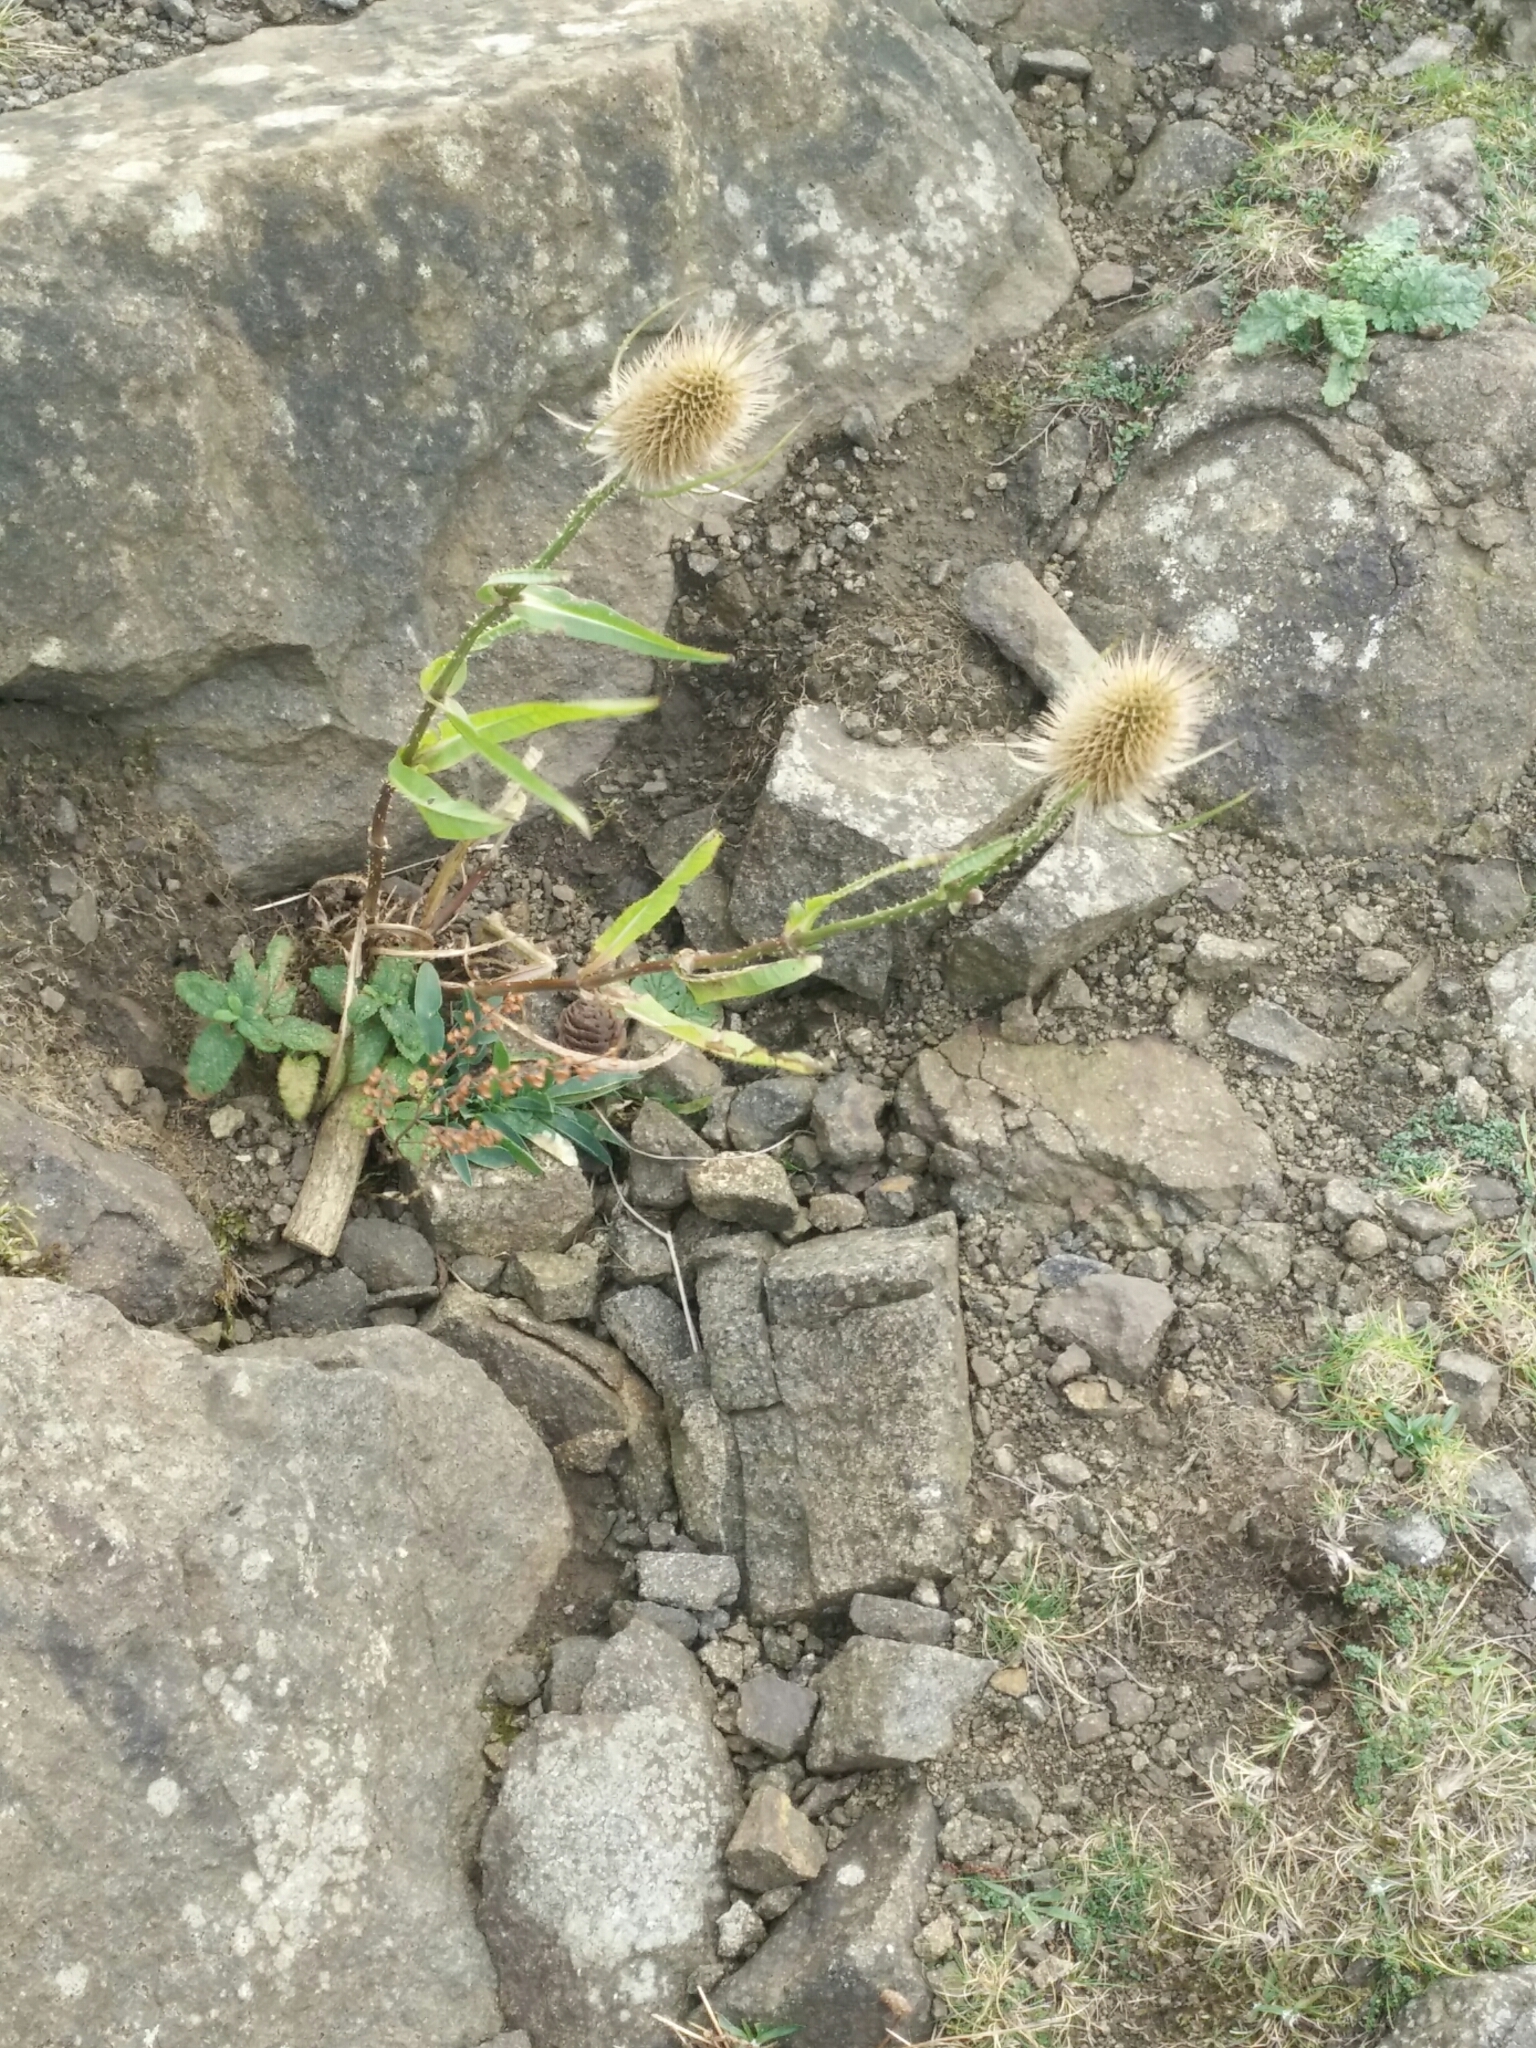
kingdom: Plantae
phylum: Tracheophyta
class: Magnoliopsida
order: Dipsacales
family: Caprifoliaceae
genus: Dipsacus
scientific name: Dipsacus fullonum
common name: Teasel
